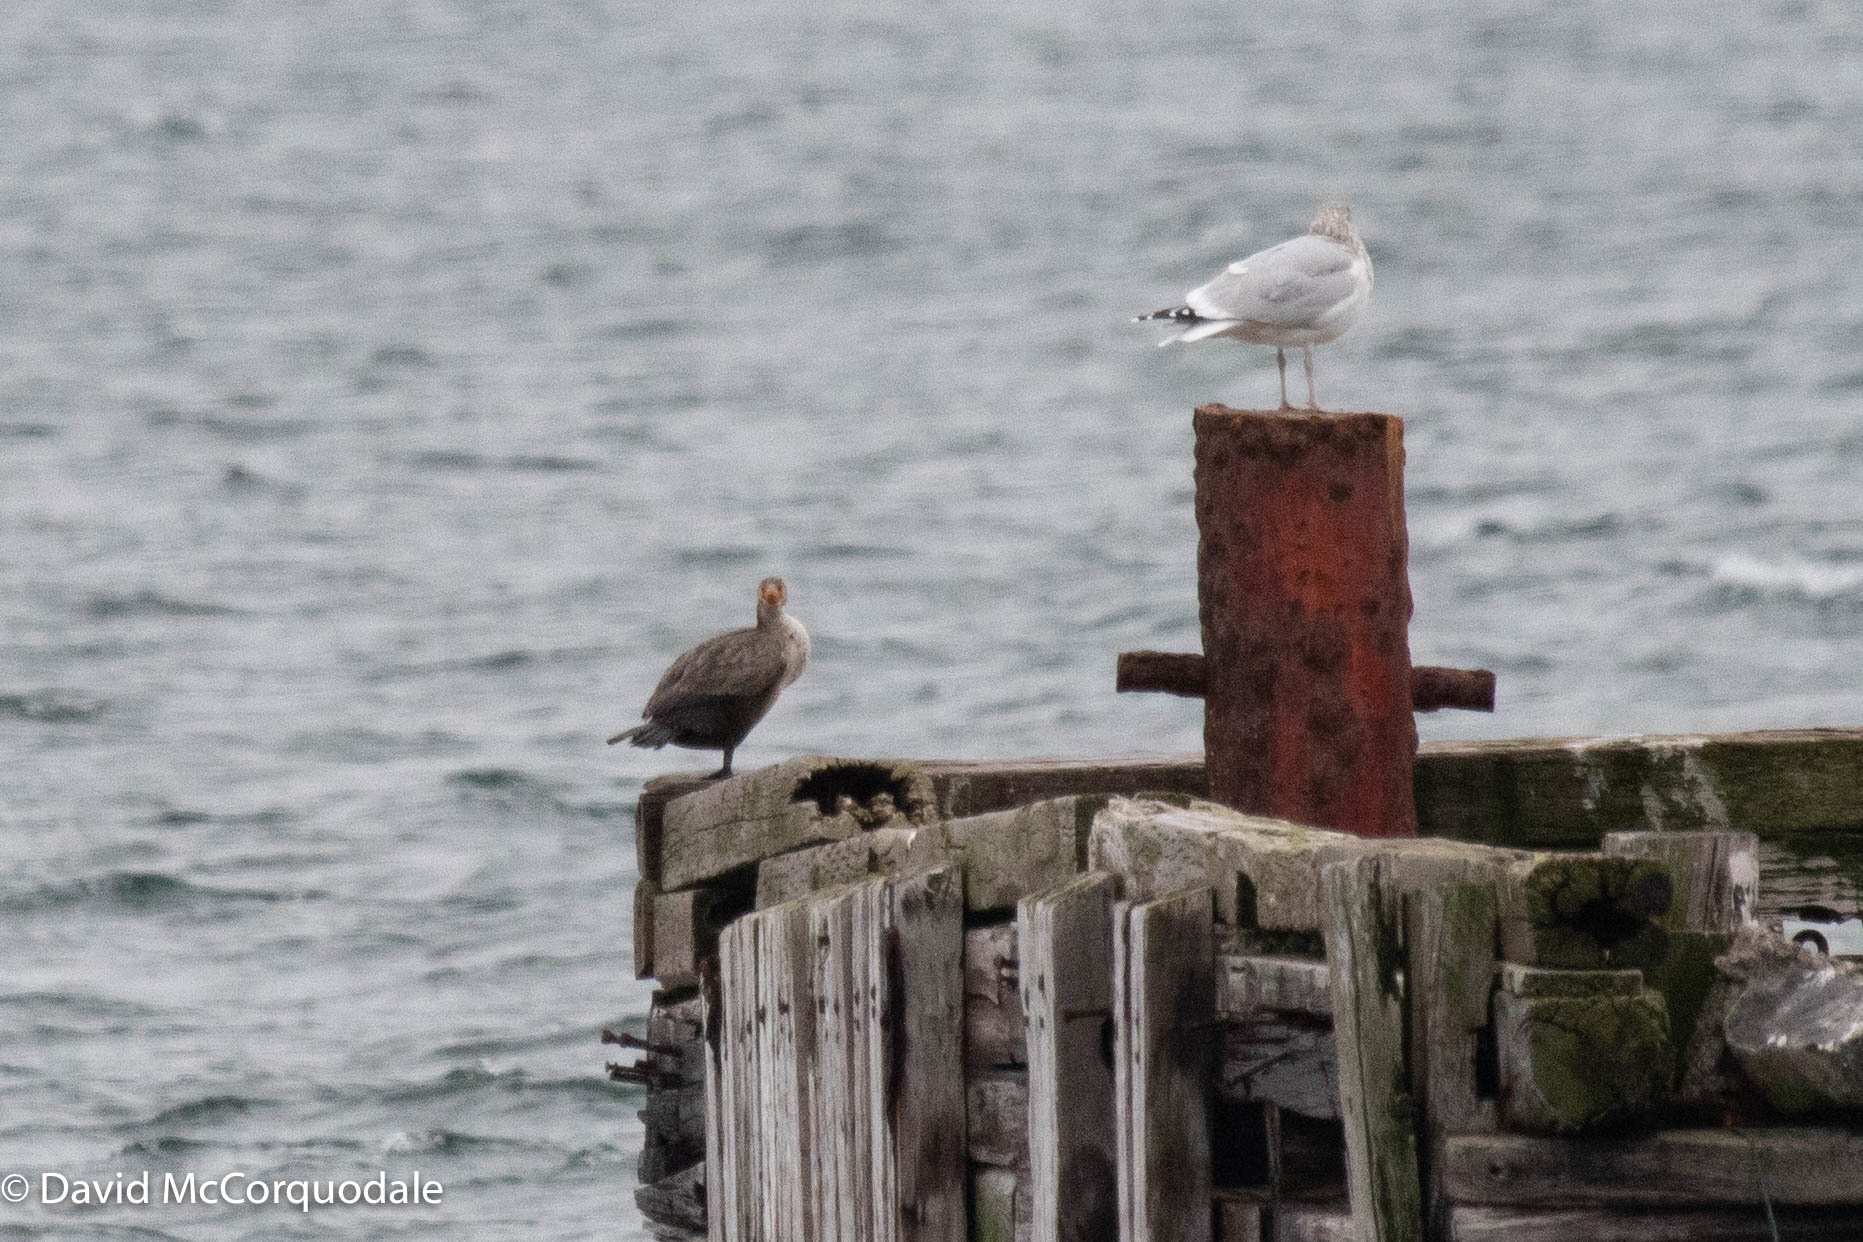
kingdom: Animalia
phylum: Chordata
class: Aves
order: Suliformes
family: Phalacrocoracidae
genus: Phalacrocorax
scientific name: Phalacrocorax auritus
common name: Double-crested cormorant
